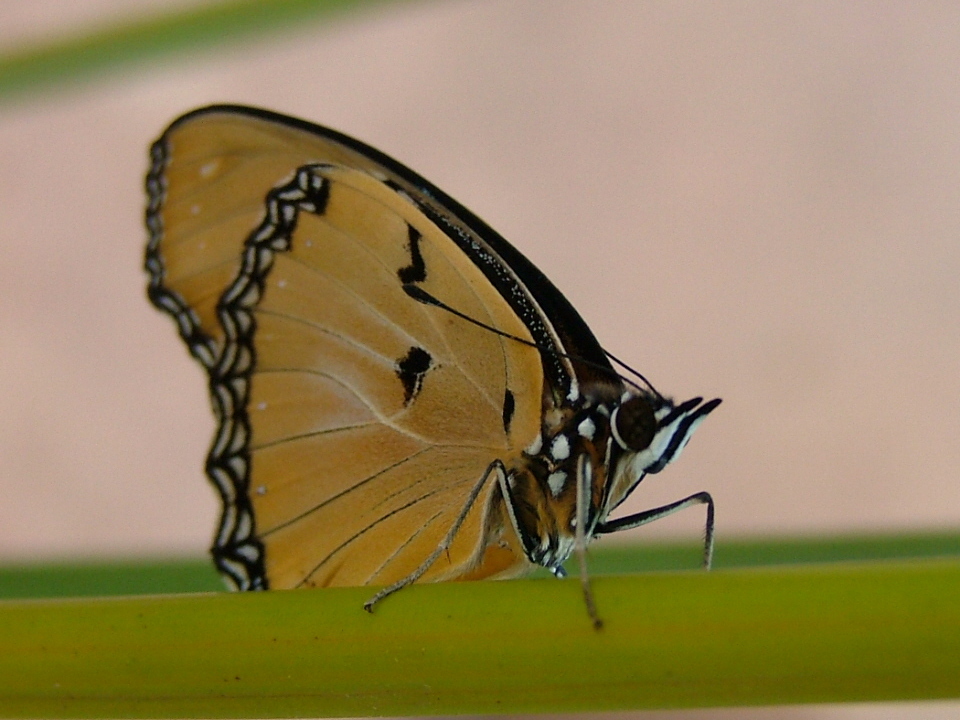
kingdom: Animalia
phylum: Arthropoda
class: Insecta
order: Lepidoptera
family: Nymphalidae
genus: Hypolimnas
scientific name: Hypolimnas misippus
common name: False plain tiger
